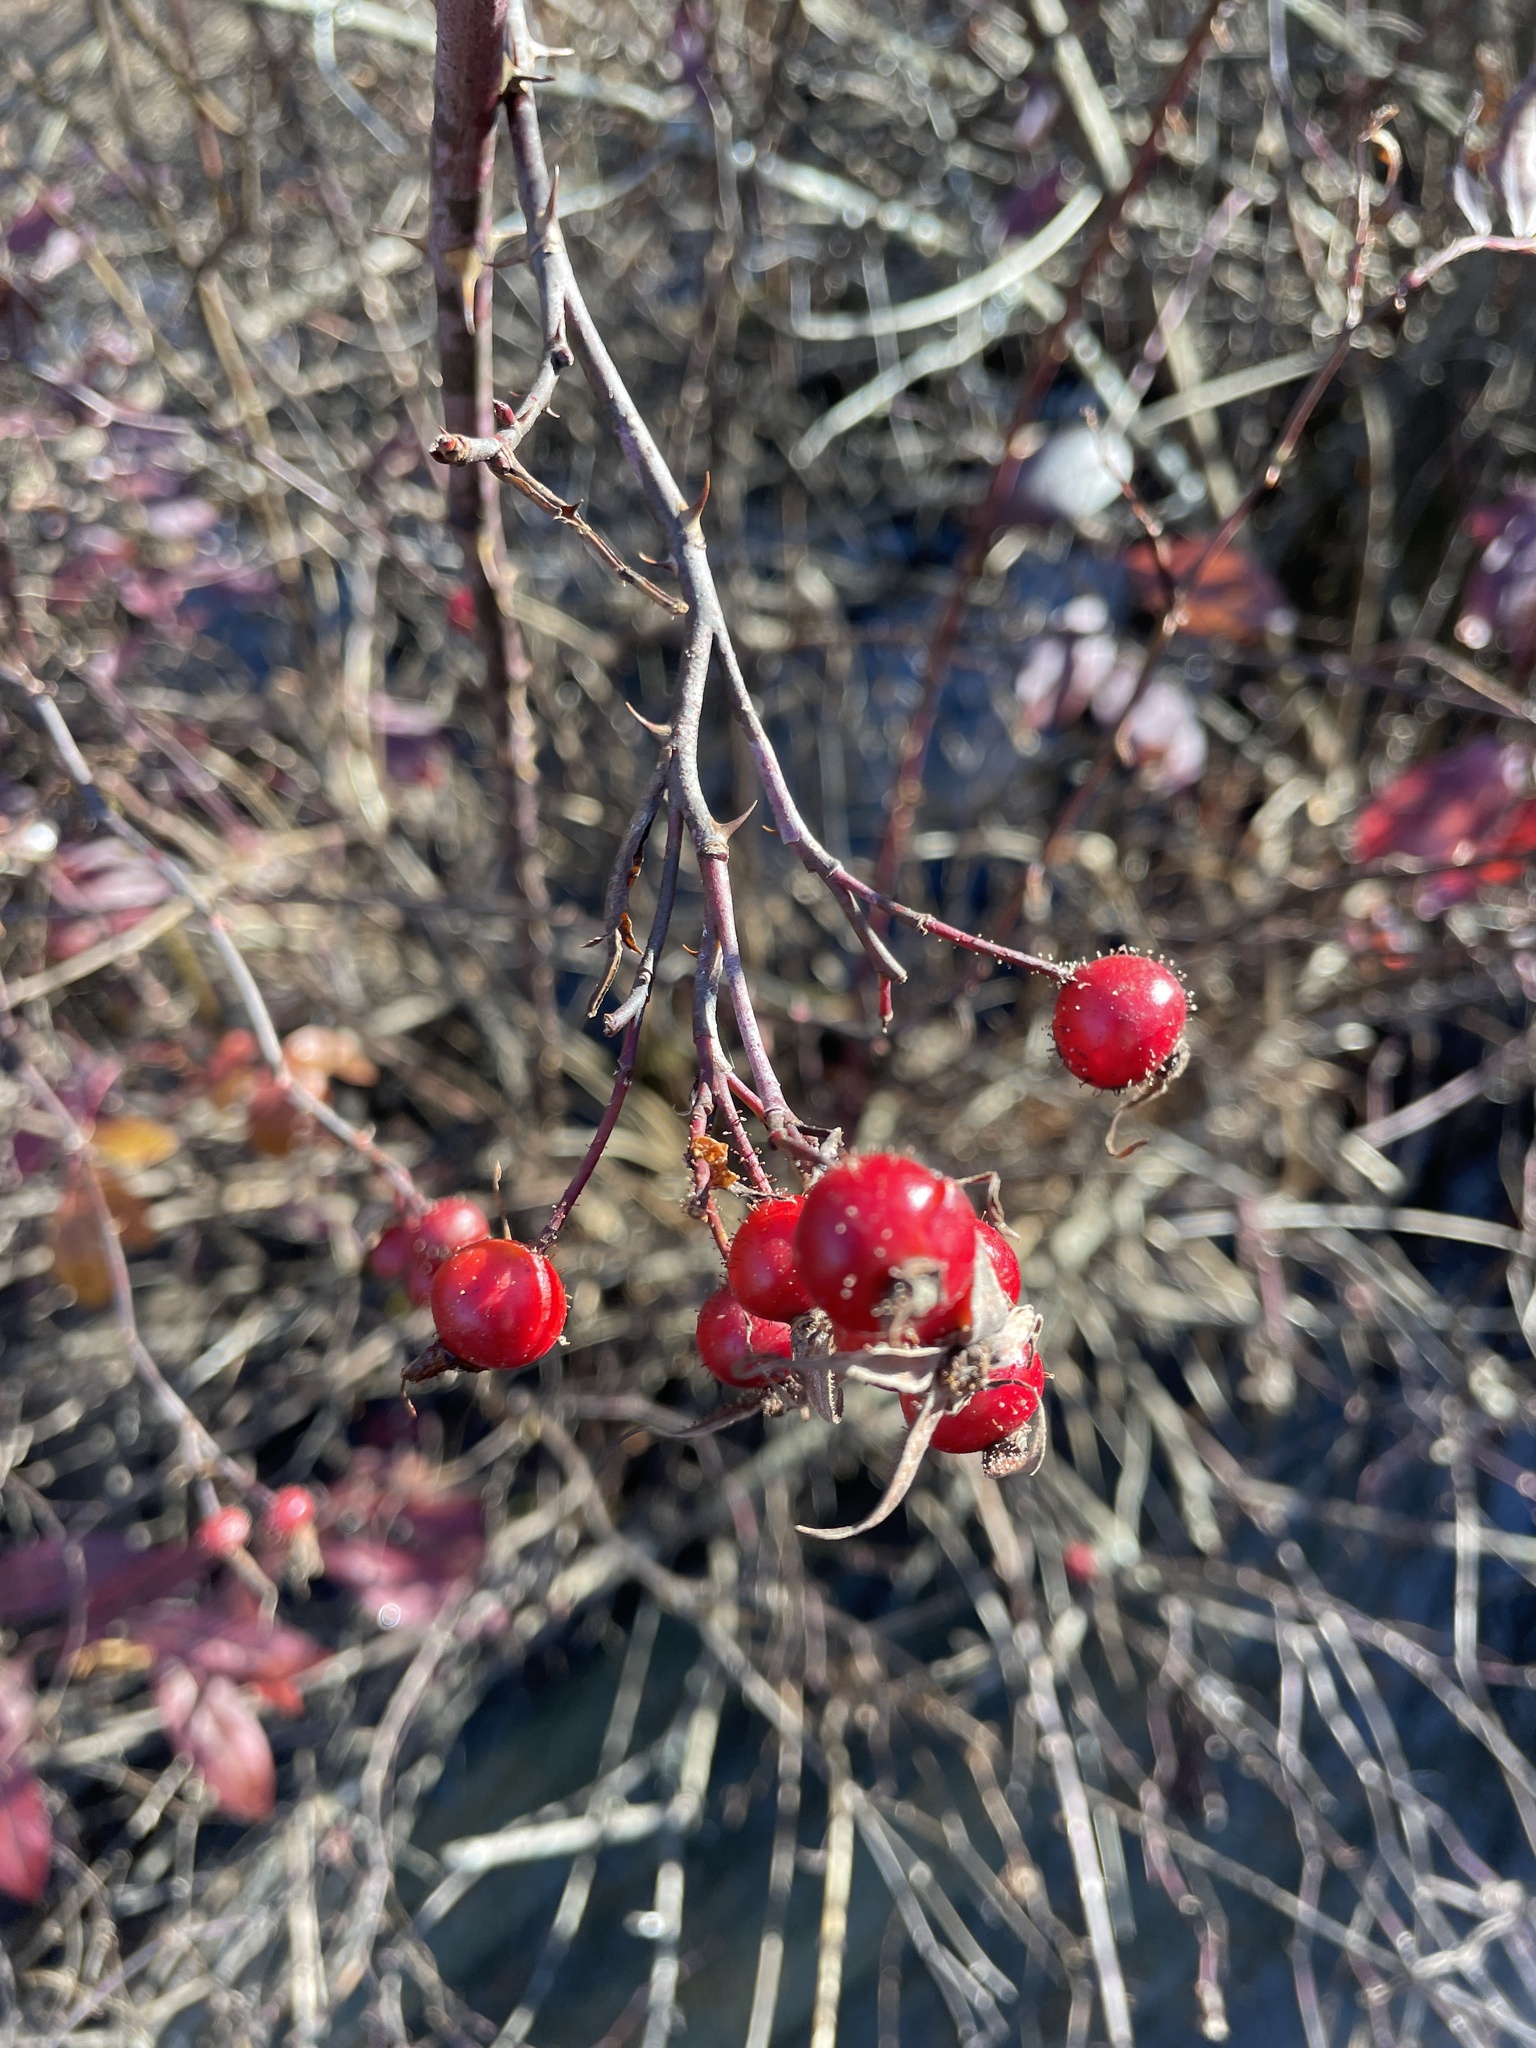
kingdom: Plantae
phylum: Tracheophyta
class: Magnoliopsida
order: Rosales
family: Rosaceae
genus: Rosa
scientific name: Rosa palustris
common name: Swamp rose
